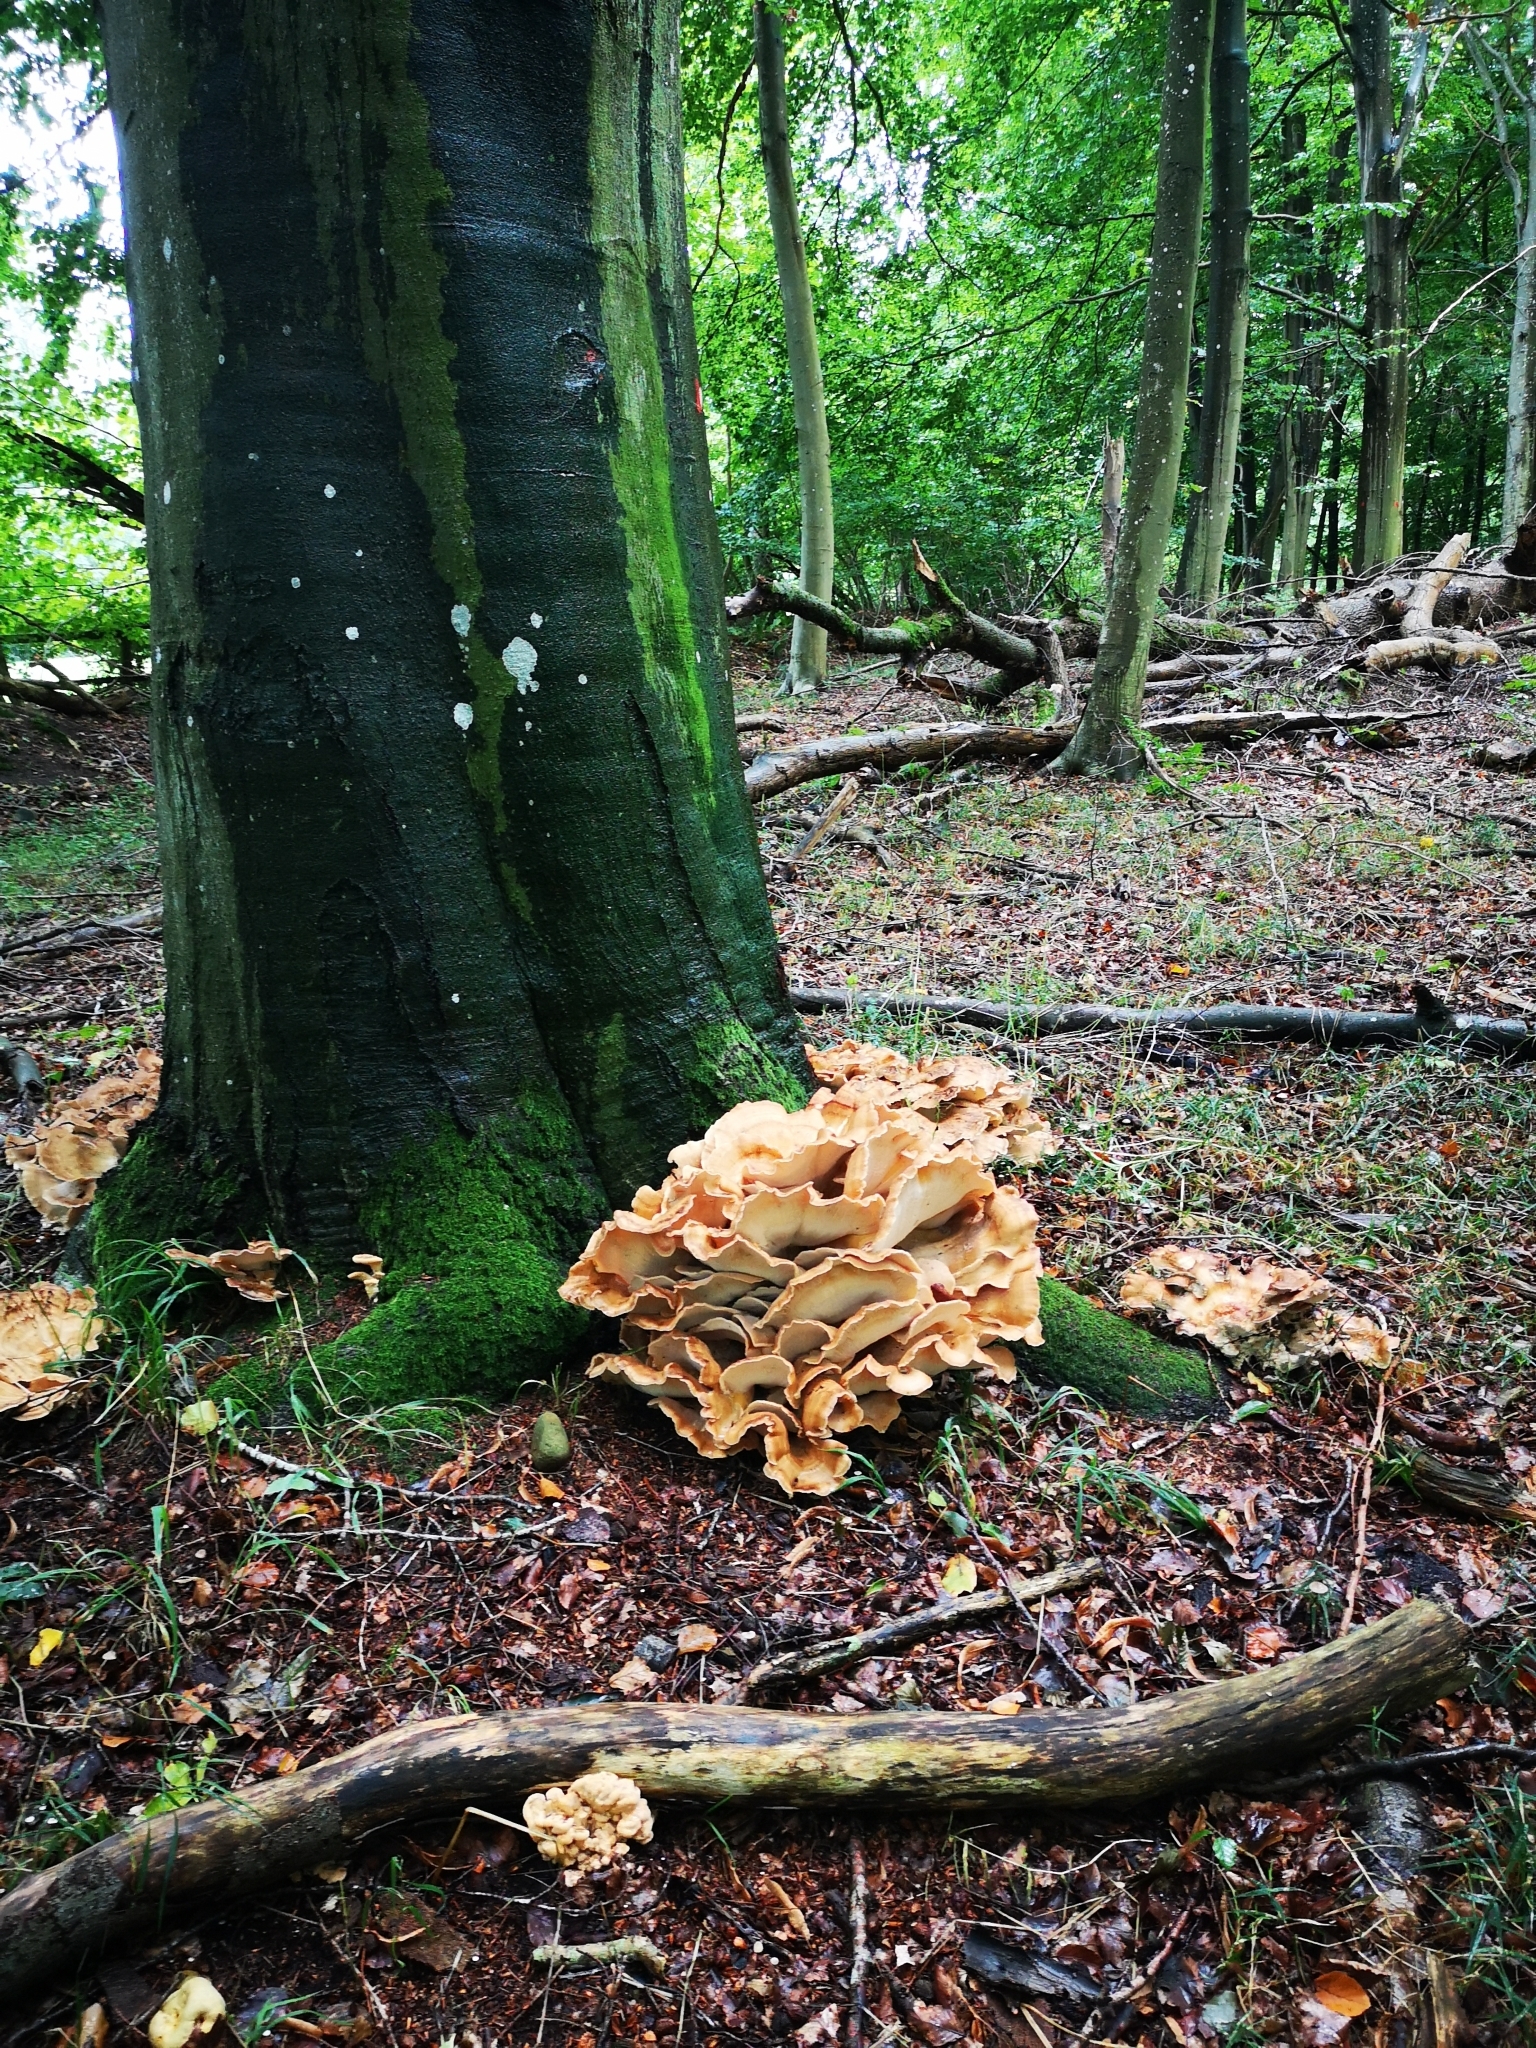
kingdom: Fungi
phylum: Basidiomycota
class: Agaricomycetes
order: Polyporales
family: Meripilaceae
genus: Meripilus
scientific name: Meripilus giganteus
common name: Giant polypore
